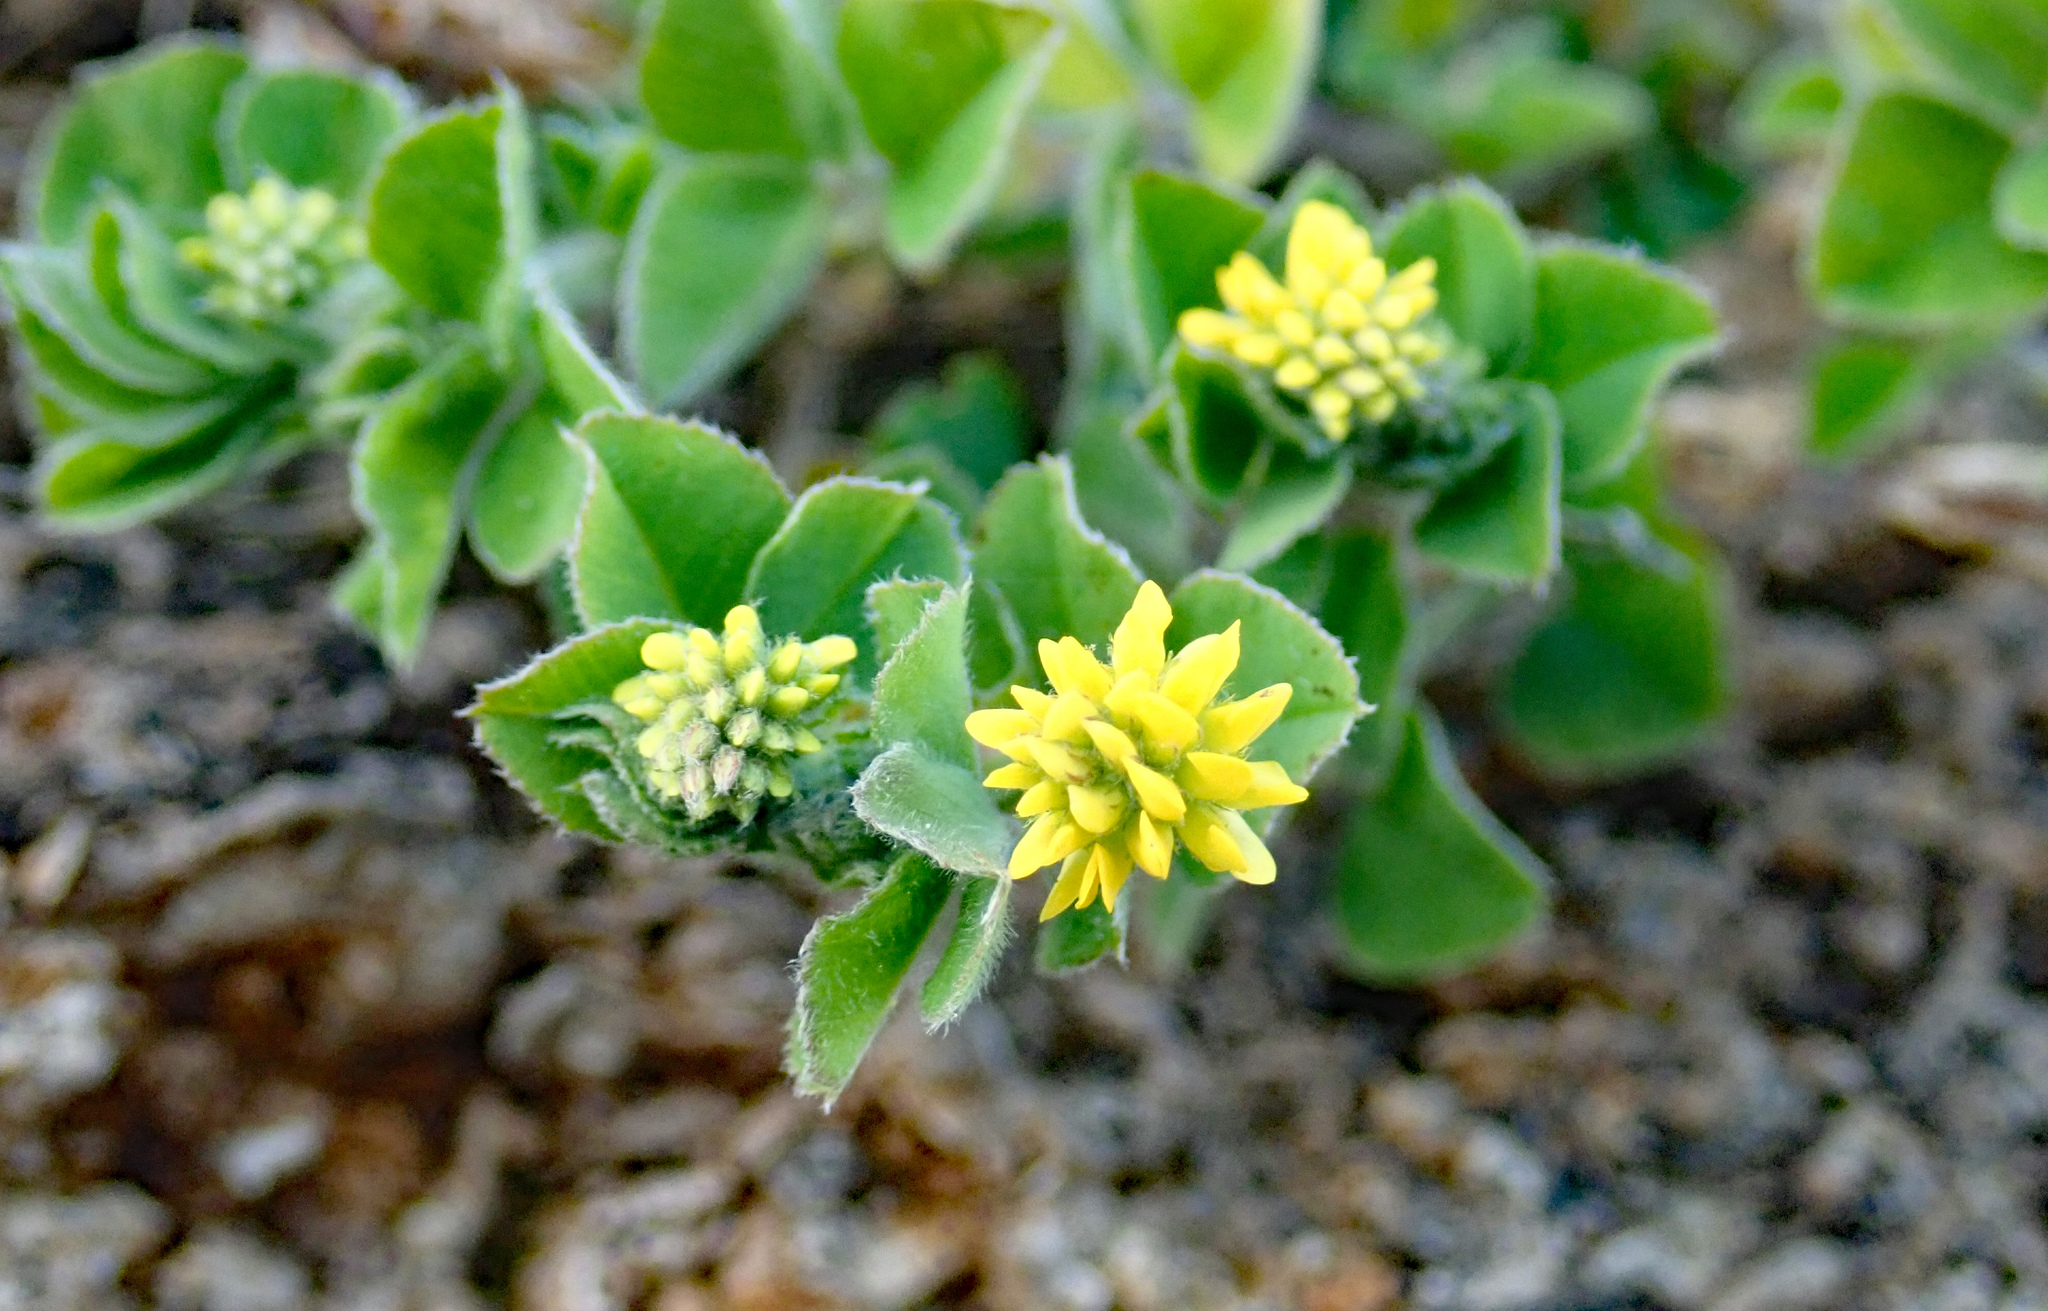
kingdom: Plantae
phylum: Tracheophyta
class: Magnoliopsida
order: Fabales
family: Fabaceae
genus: Medicago
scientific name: Medicago lupulina
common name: Black medick
